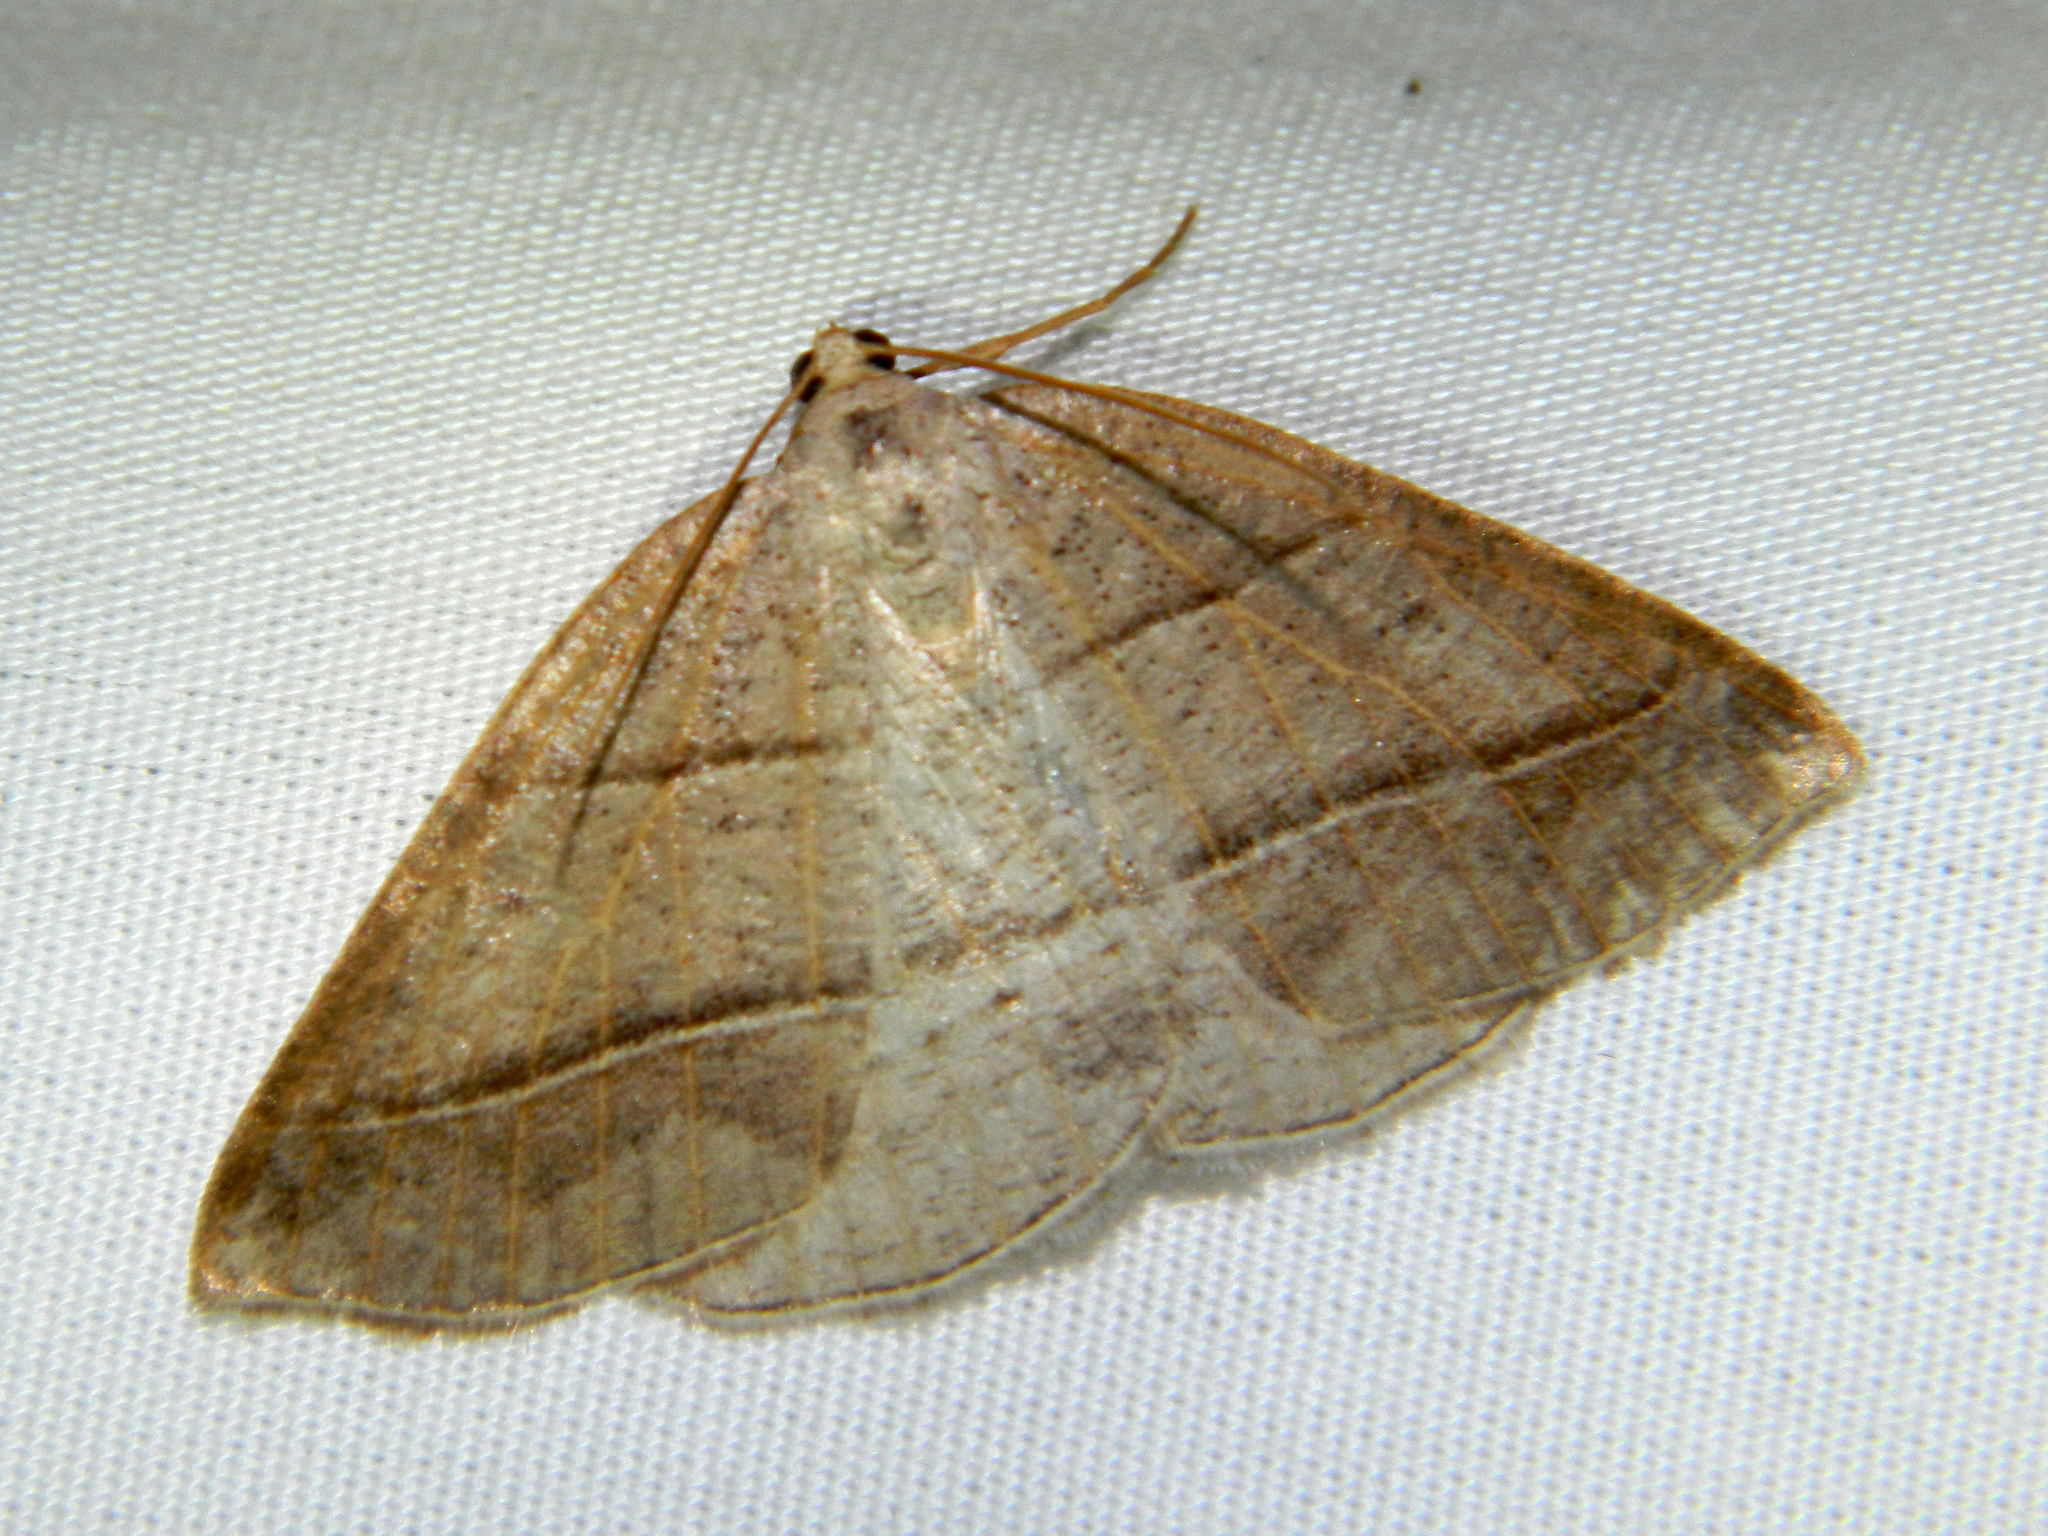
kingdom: Animalia
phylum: Arthropoda
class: Insecta
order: Lepidoptera
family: Pterophoridae
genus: Pterophorus
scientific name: Pterophorus Petrophora subaequaria
